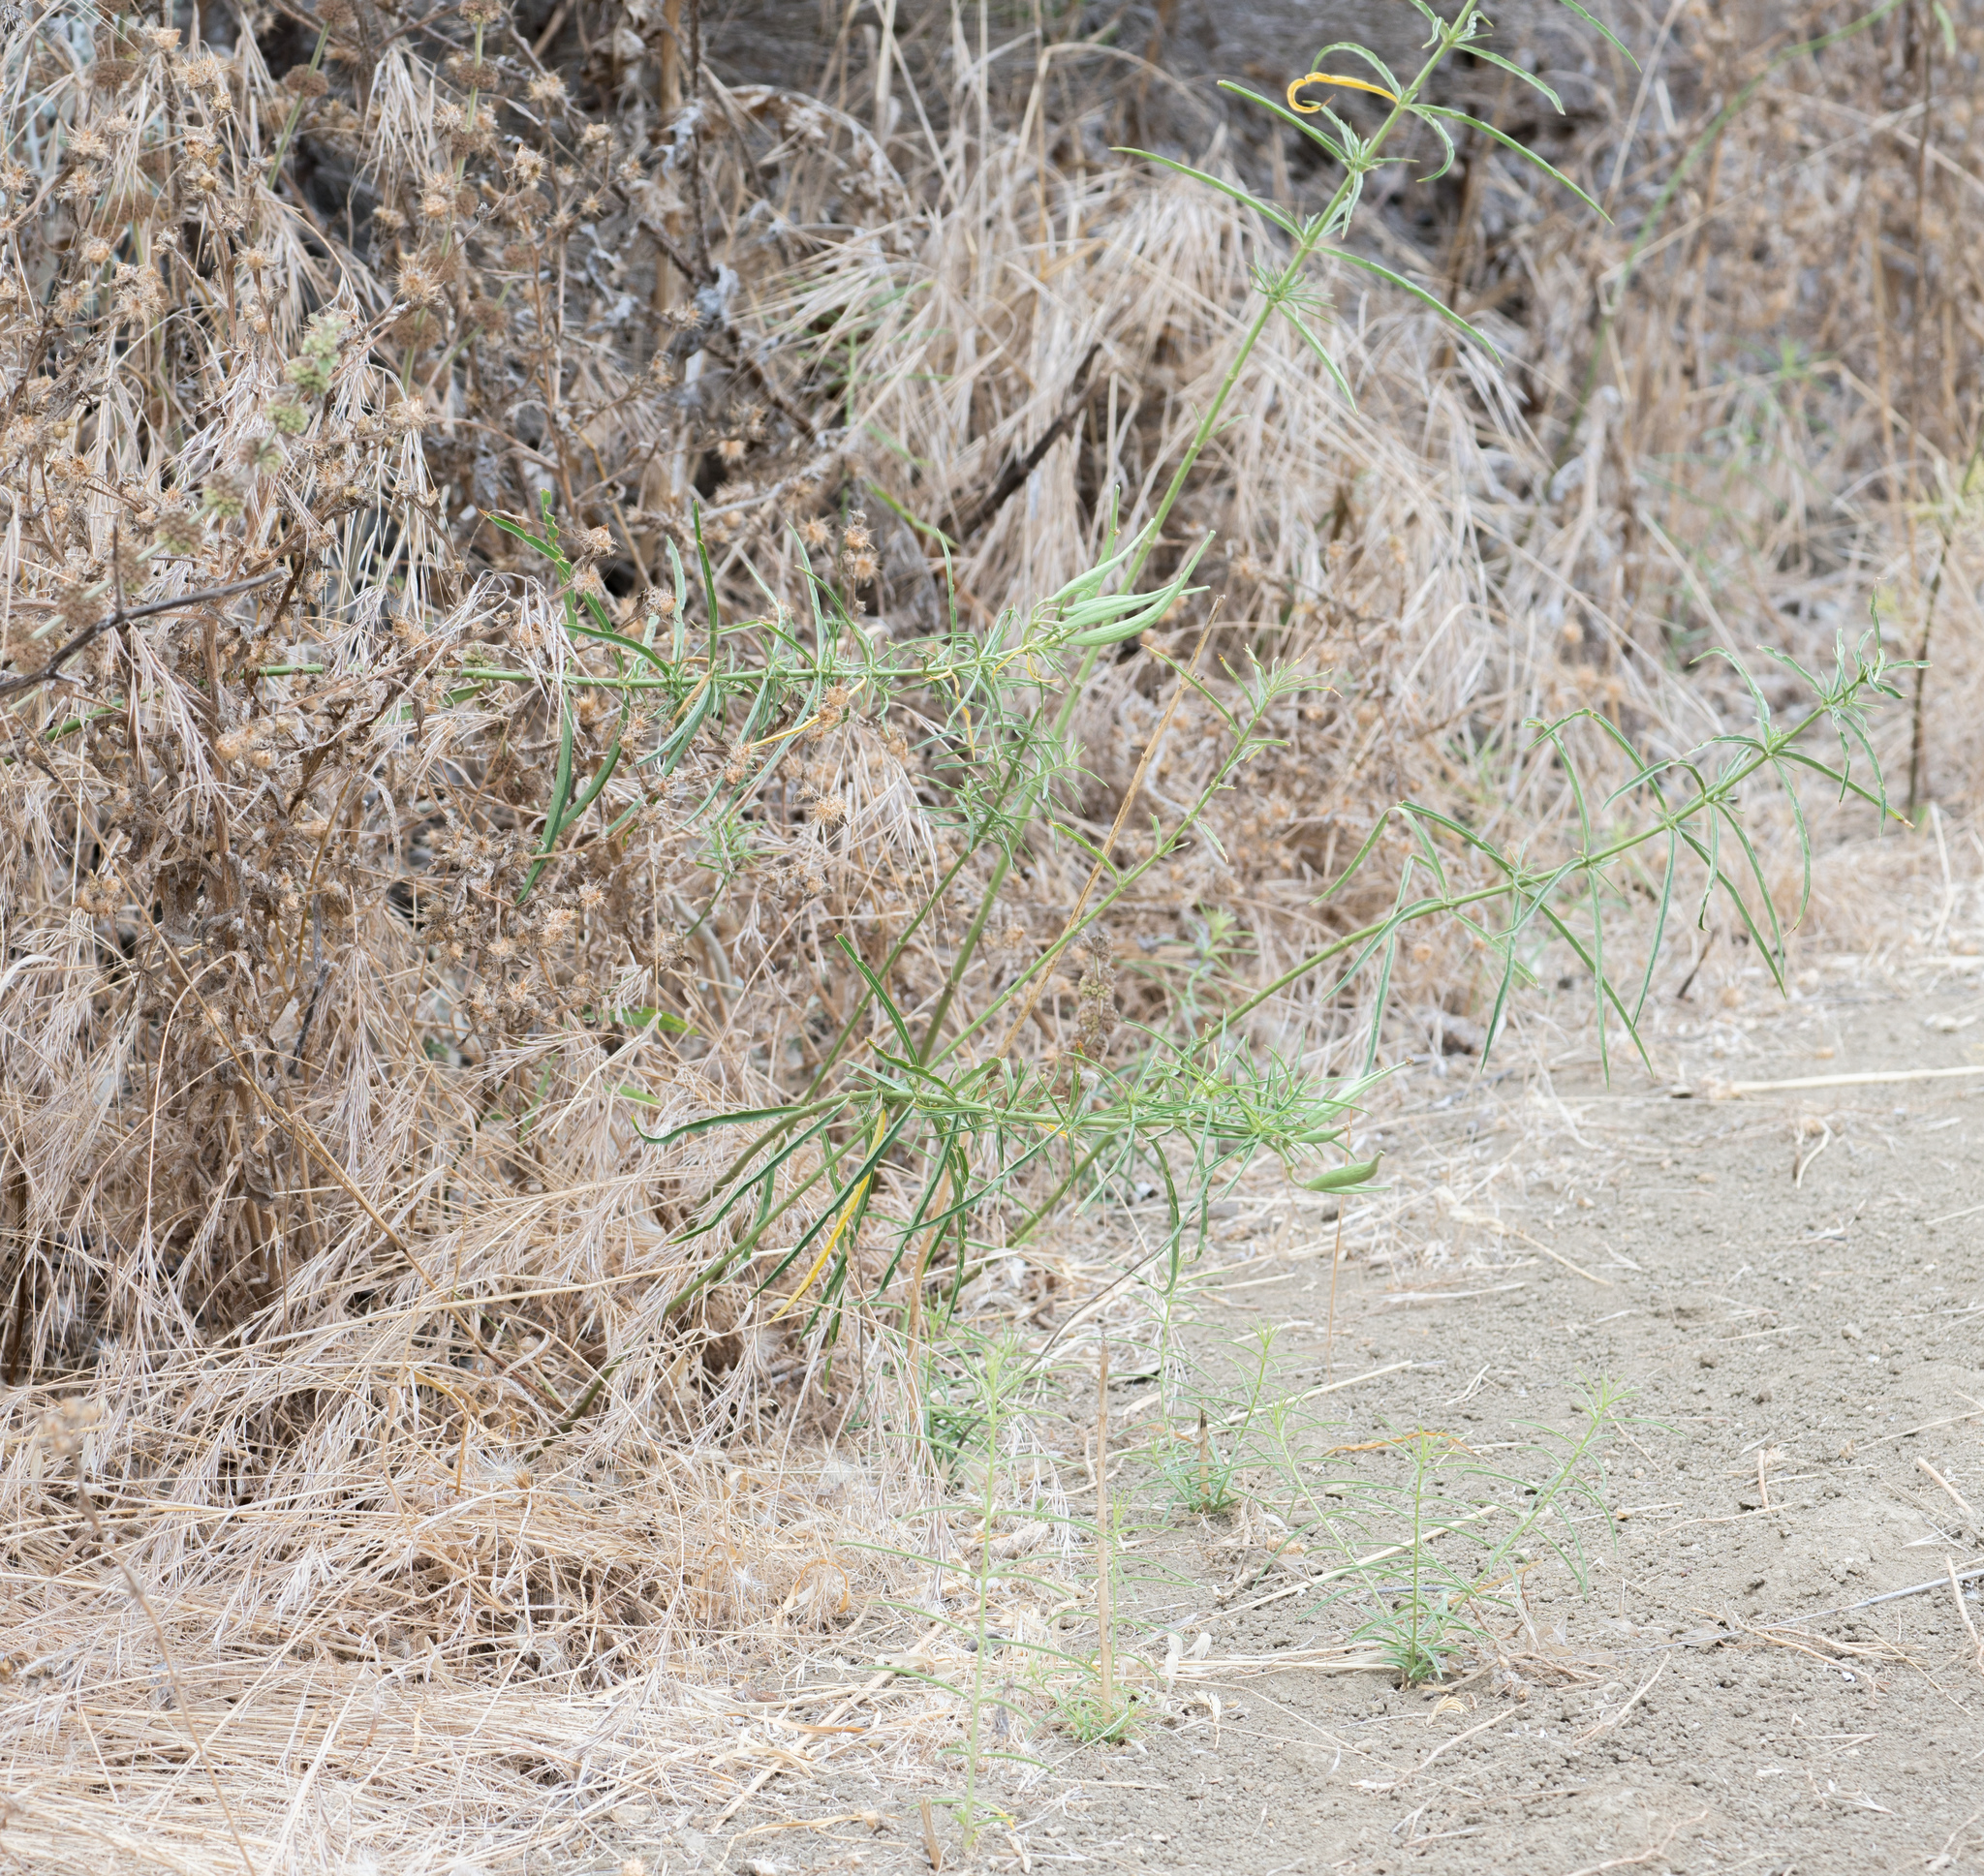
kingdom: Plantae
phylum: Tracheophyta
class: Magnoliopsida
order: Gentianales
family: Apocynaceae
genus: Asclepias
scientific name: Asclepias fascicularis
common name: Mexican milkweed
